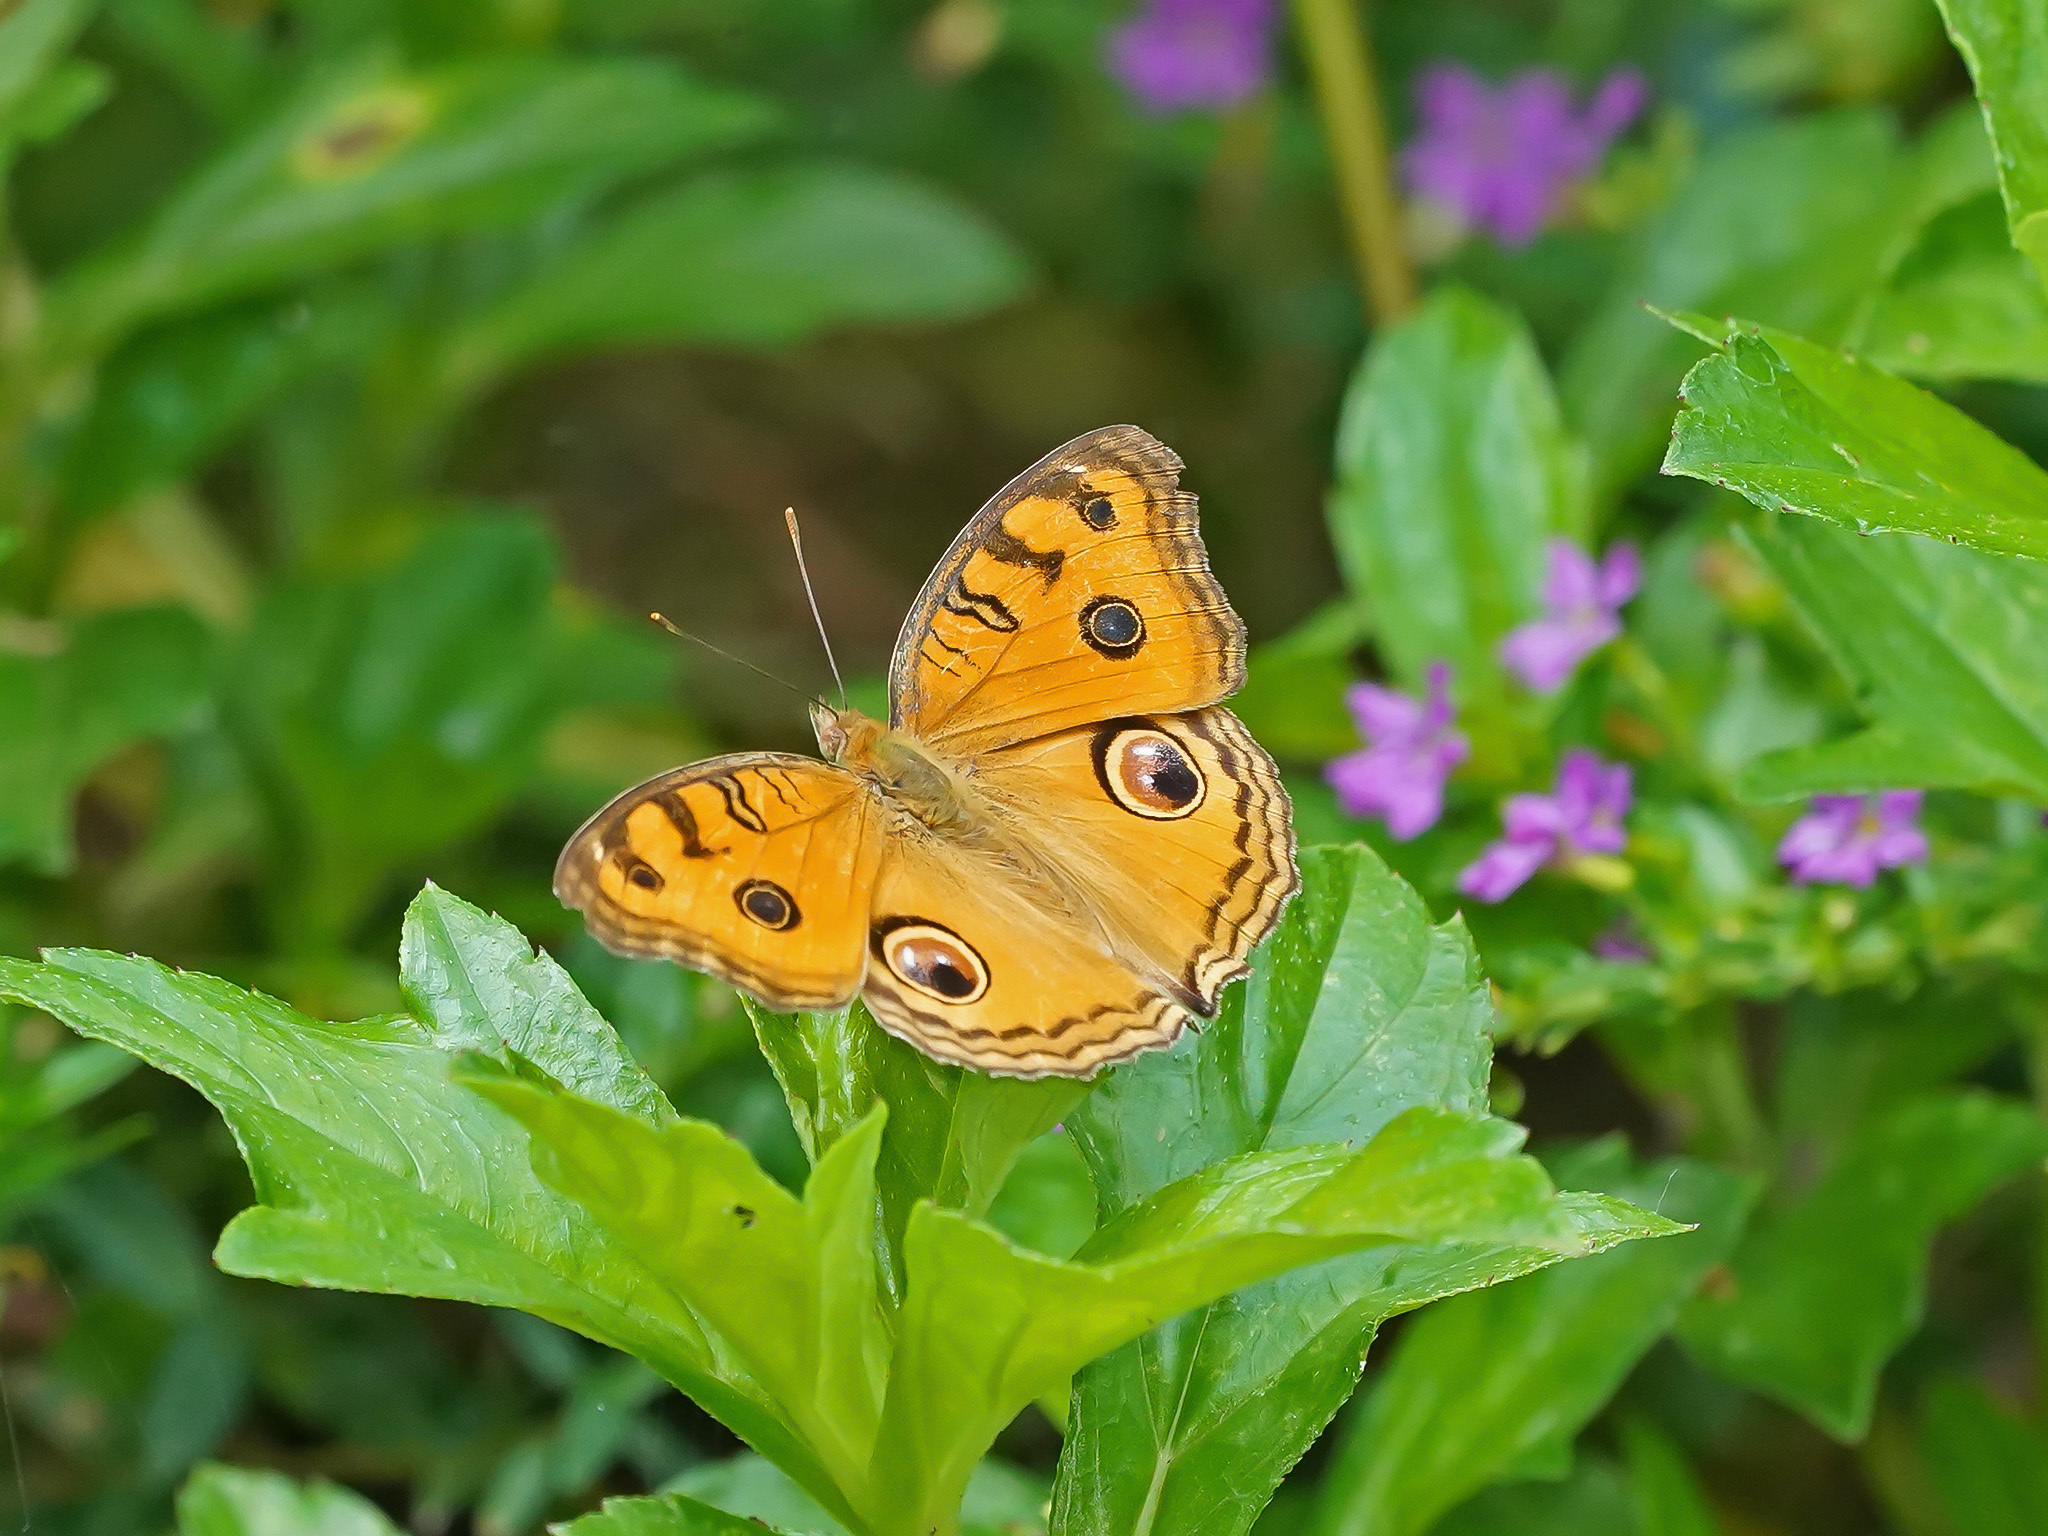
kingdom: Animalia
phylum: Arthropoda
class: Insecta
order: Lepidoptera
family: Nymphalidae
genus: Junonia
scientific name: Junonia almana
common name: Peacock pansy
